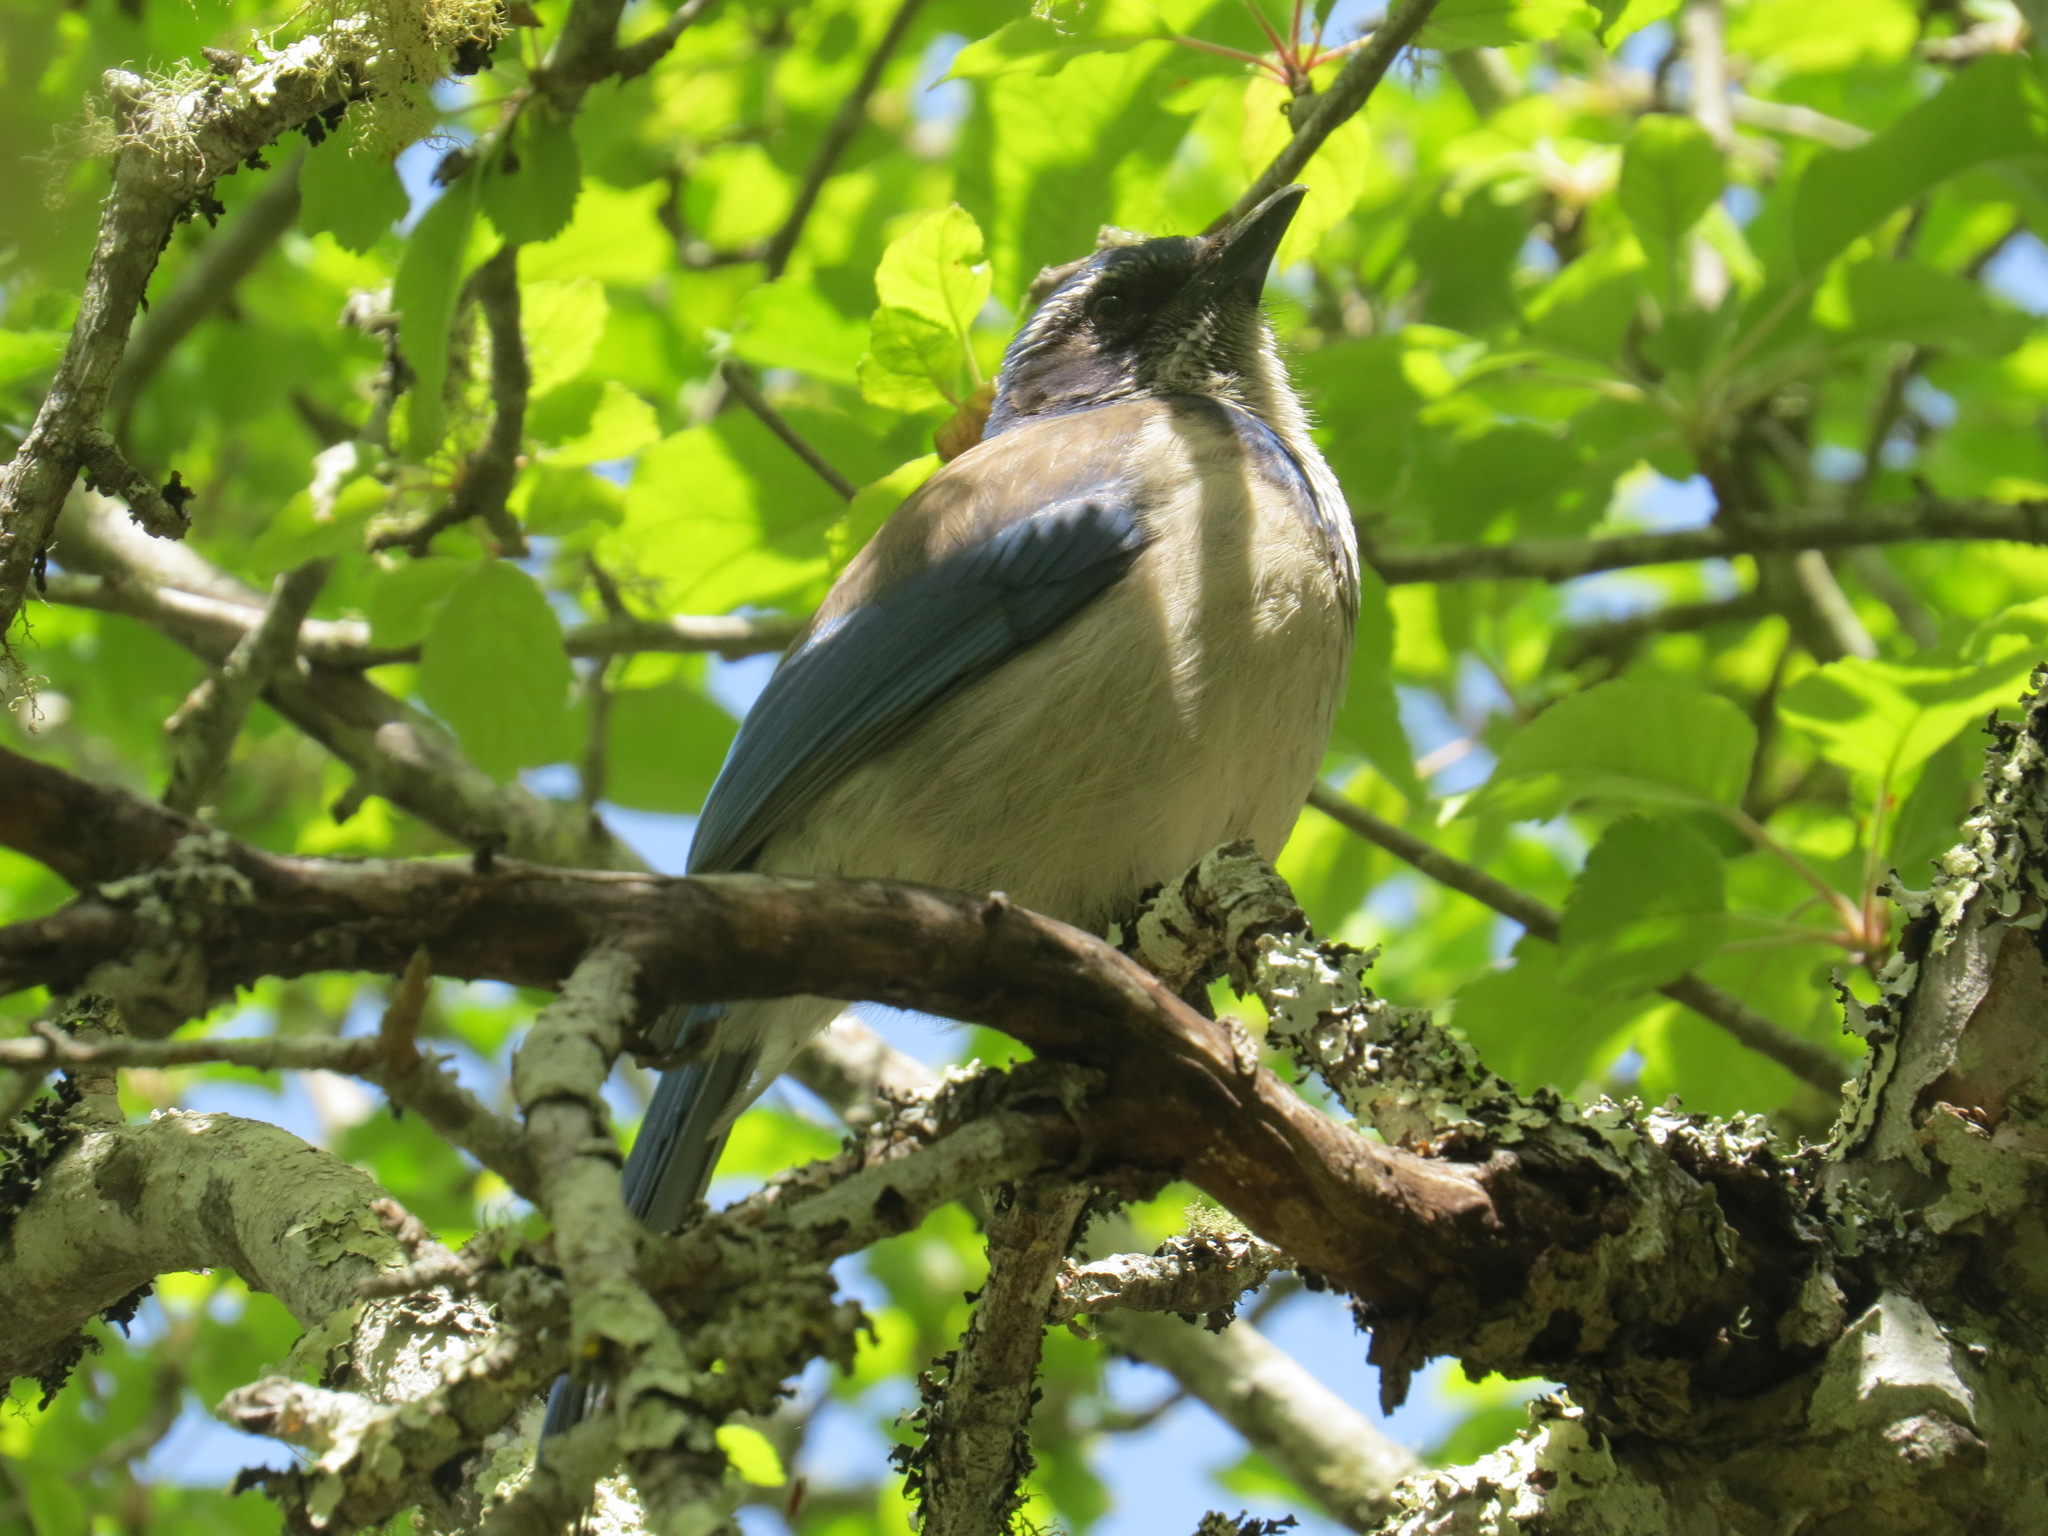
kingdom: Animalia
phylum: Chordata
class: Aves
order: Passeriformes
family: Corvidae
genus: Aphelocoma
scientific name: Aphelocoma californica
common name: California scrub-jay
